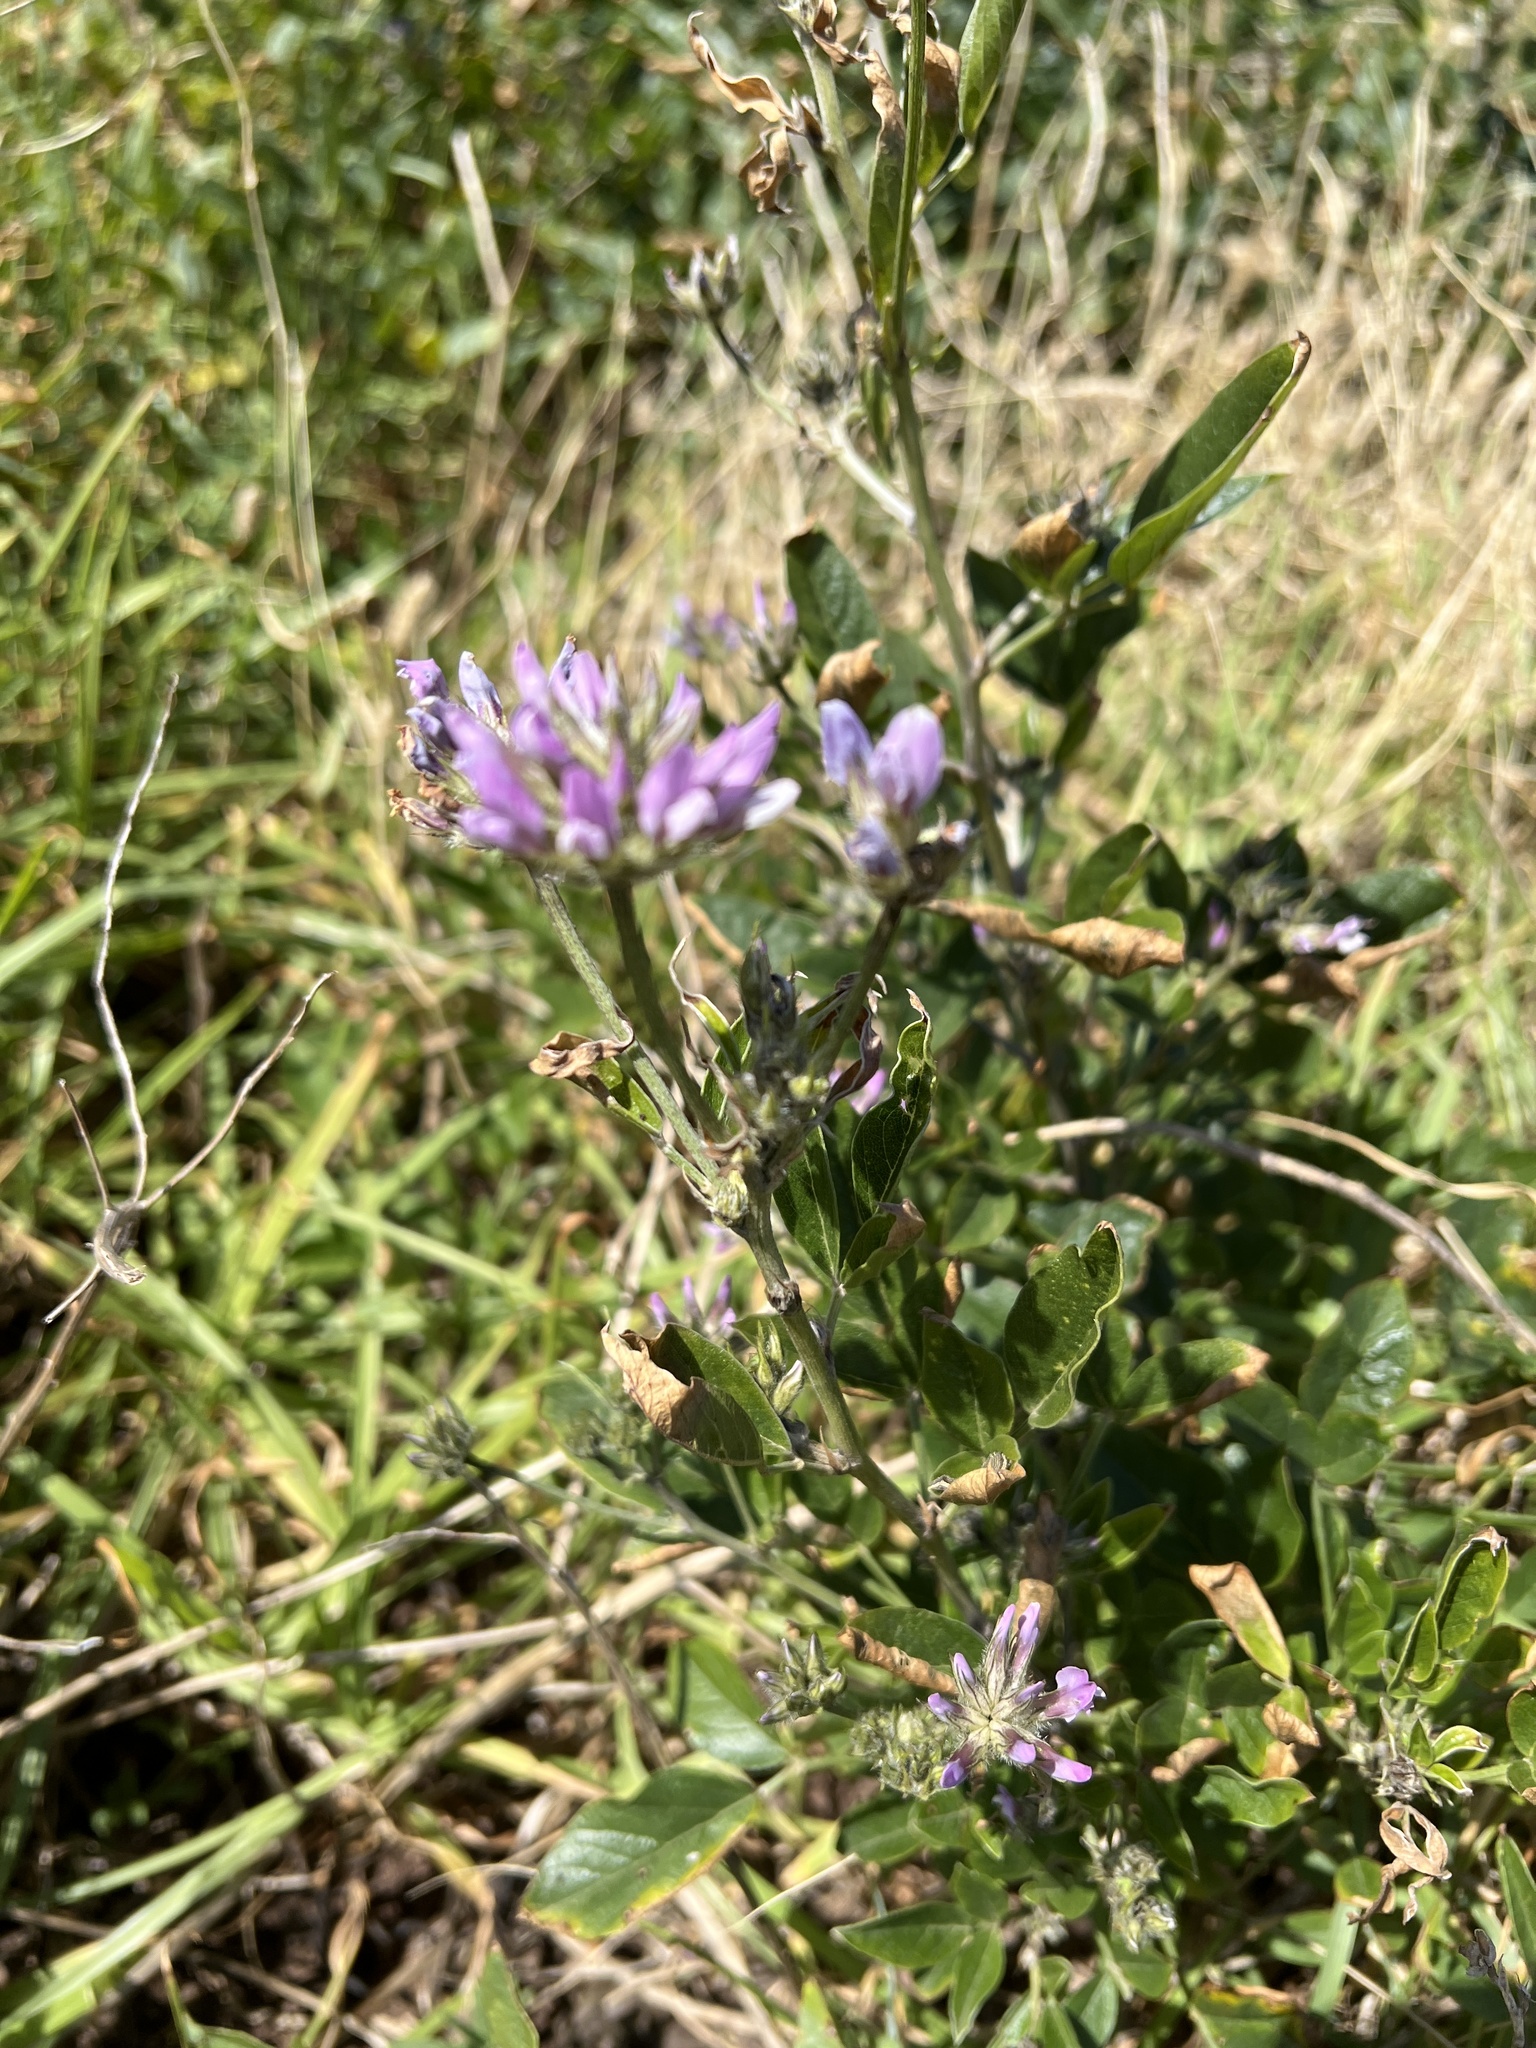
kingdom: Plantae
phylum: Tracheophyta
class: Magnoliopsida
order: Fabales
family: Fabaceae
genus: Bituminaria
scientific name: Bituminaria bituminosa
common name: Arabian pea
